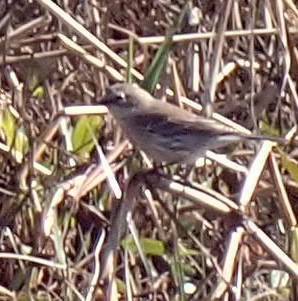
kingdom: Animalia
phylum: Chordata
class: Aves
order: Passeriformes
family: Parulidae
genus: Setophaga
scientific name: Setophaga coronata
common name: Myrtle warbler
